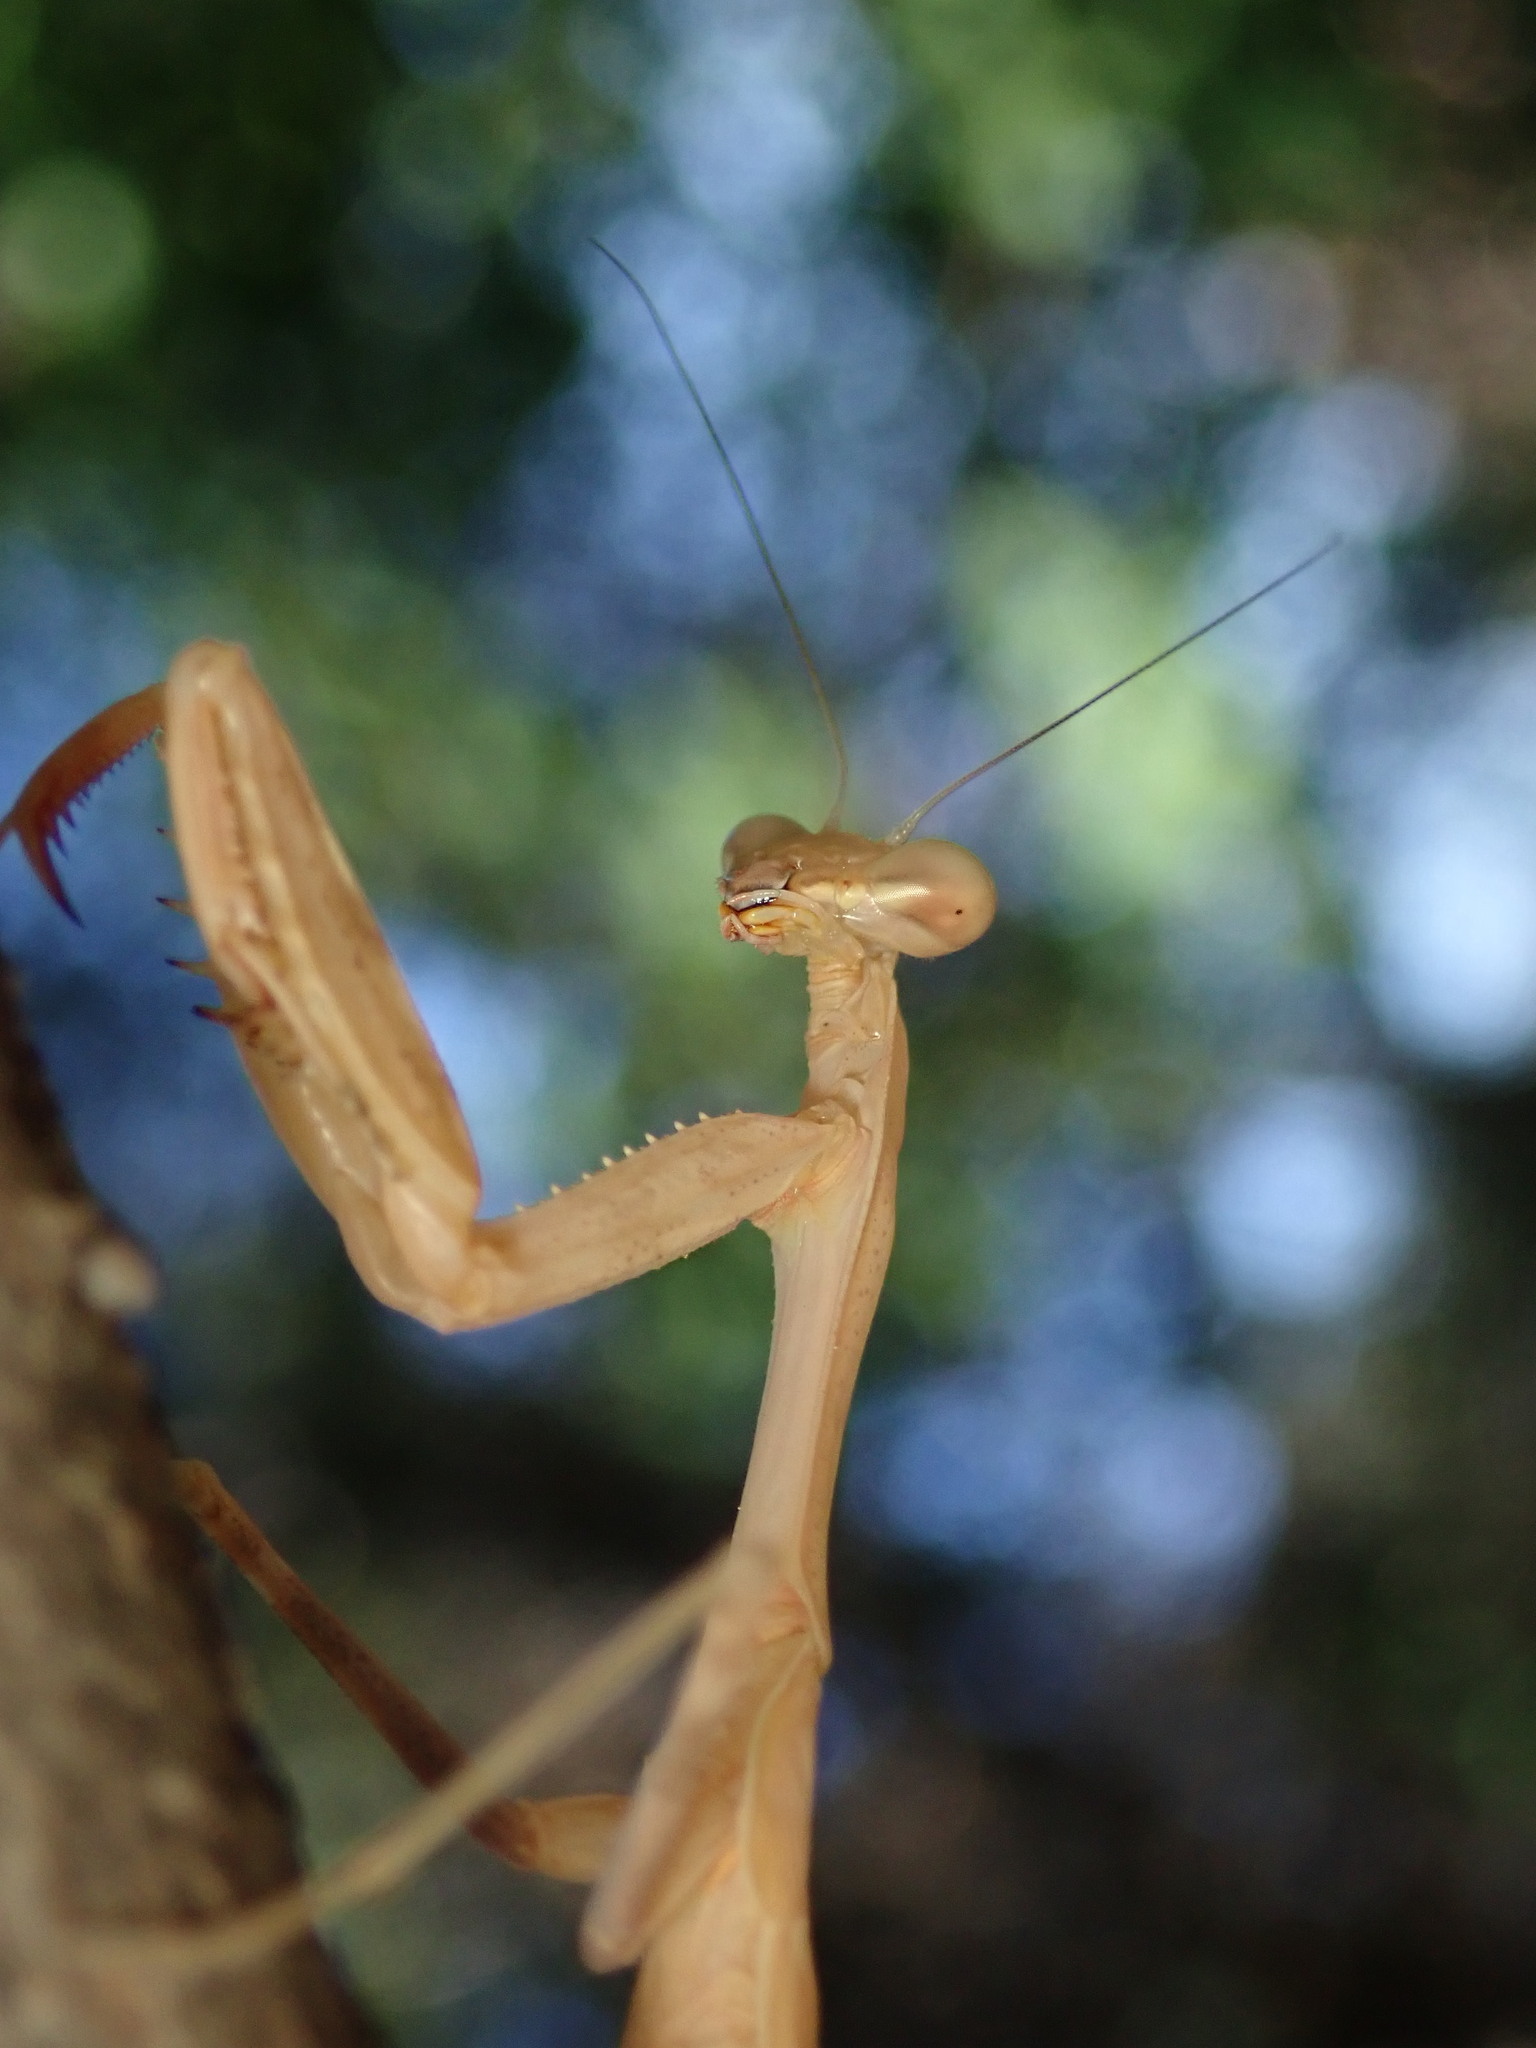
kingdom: Animalia
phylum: Arthropoda
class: Insecta
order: Mantodea
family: Mantidae
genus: Stagmomantis
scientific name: Stagmomantis limbata
